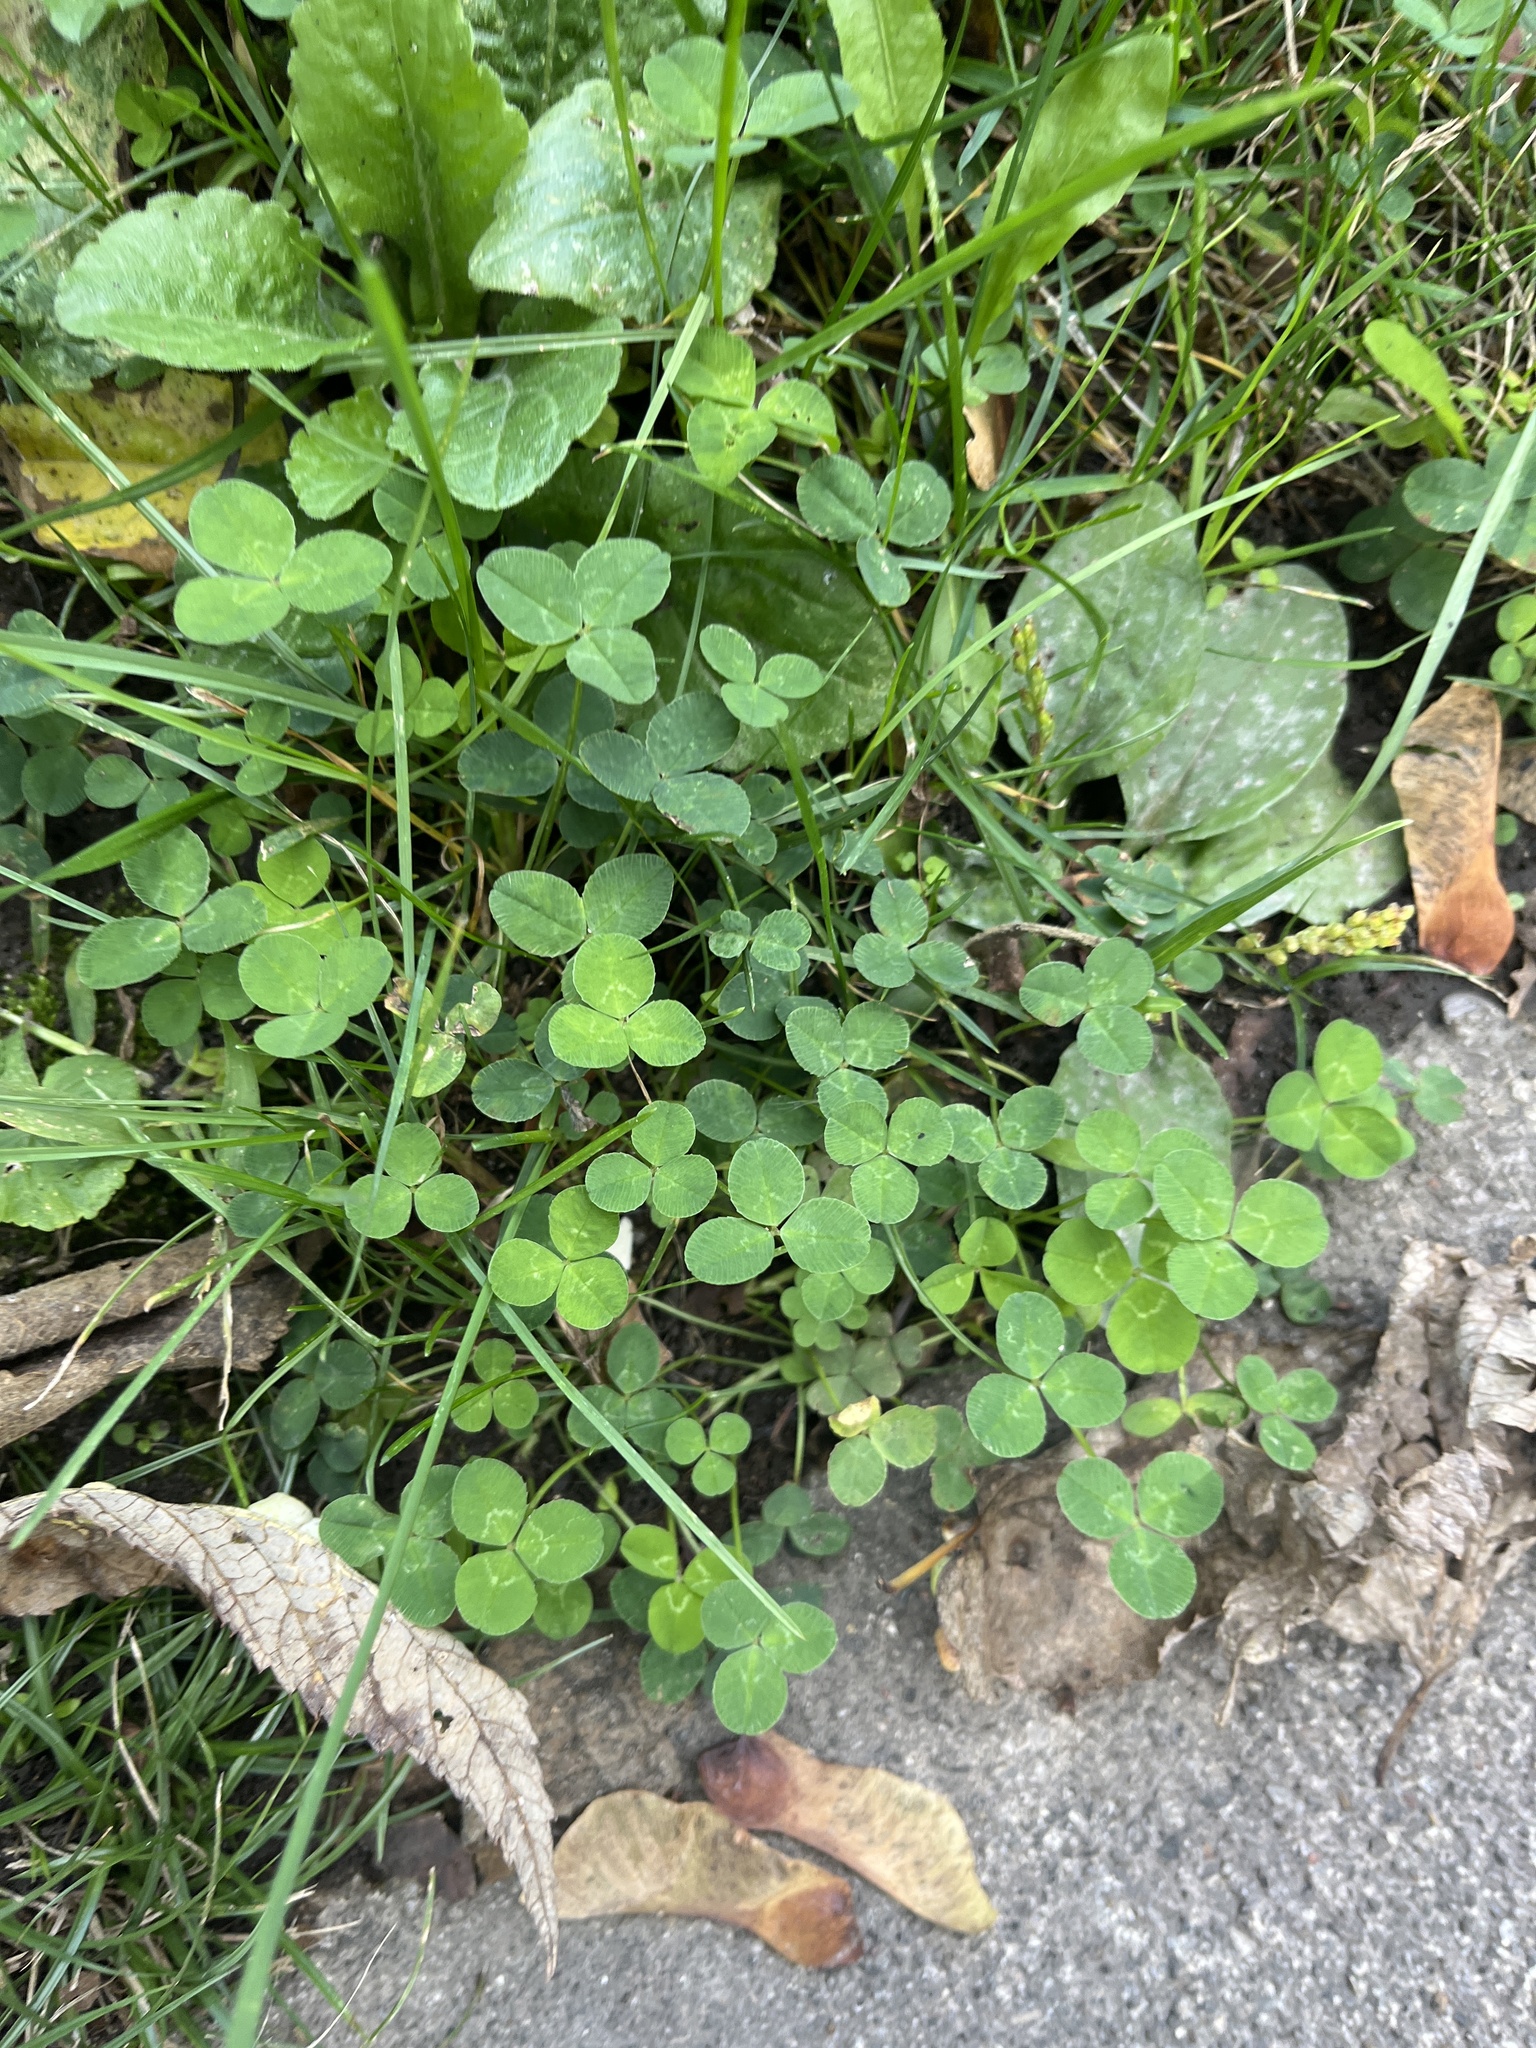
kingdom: Plantae
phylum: Tracheophyta
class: Magnoliopsida
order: Fabales
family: Fabaceae
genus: Trifolium
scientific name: Trifolium repens
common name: White clover
